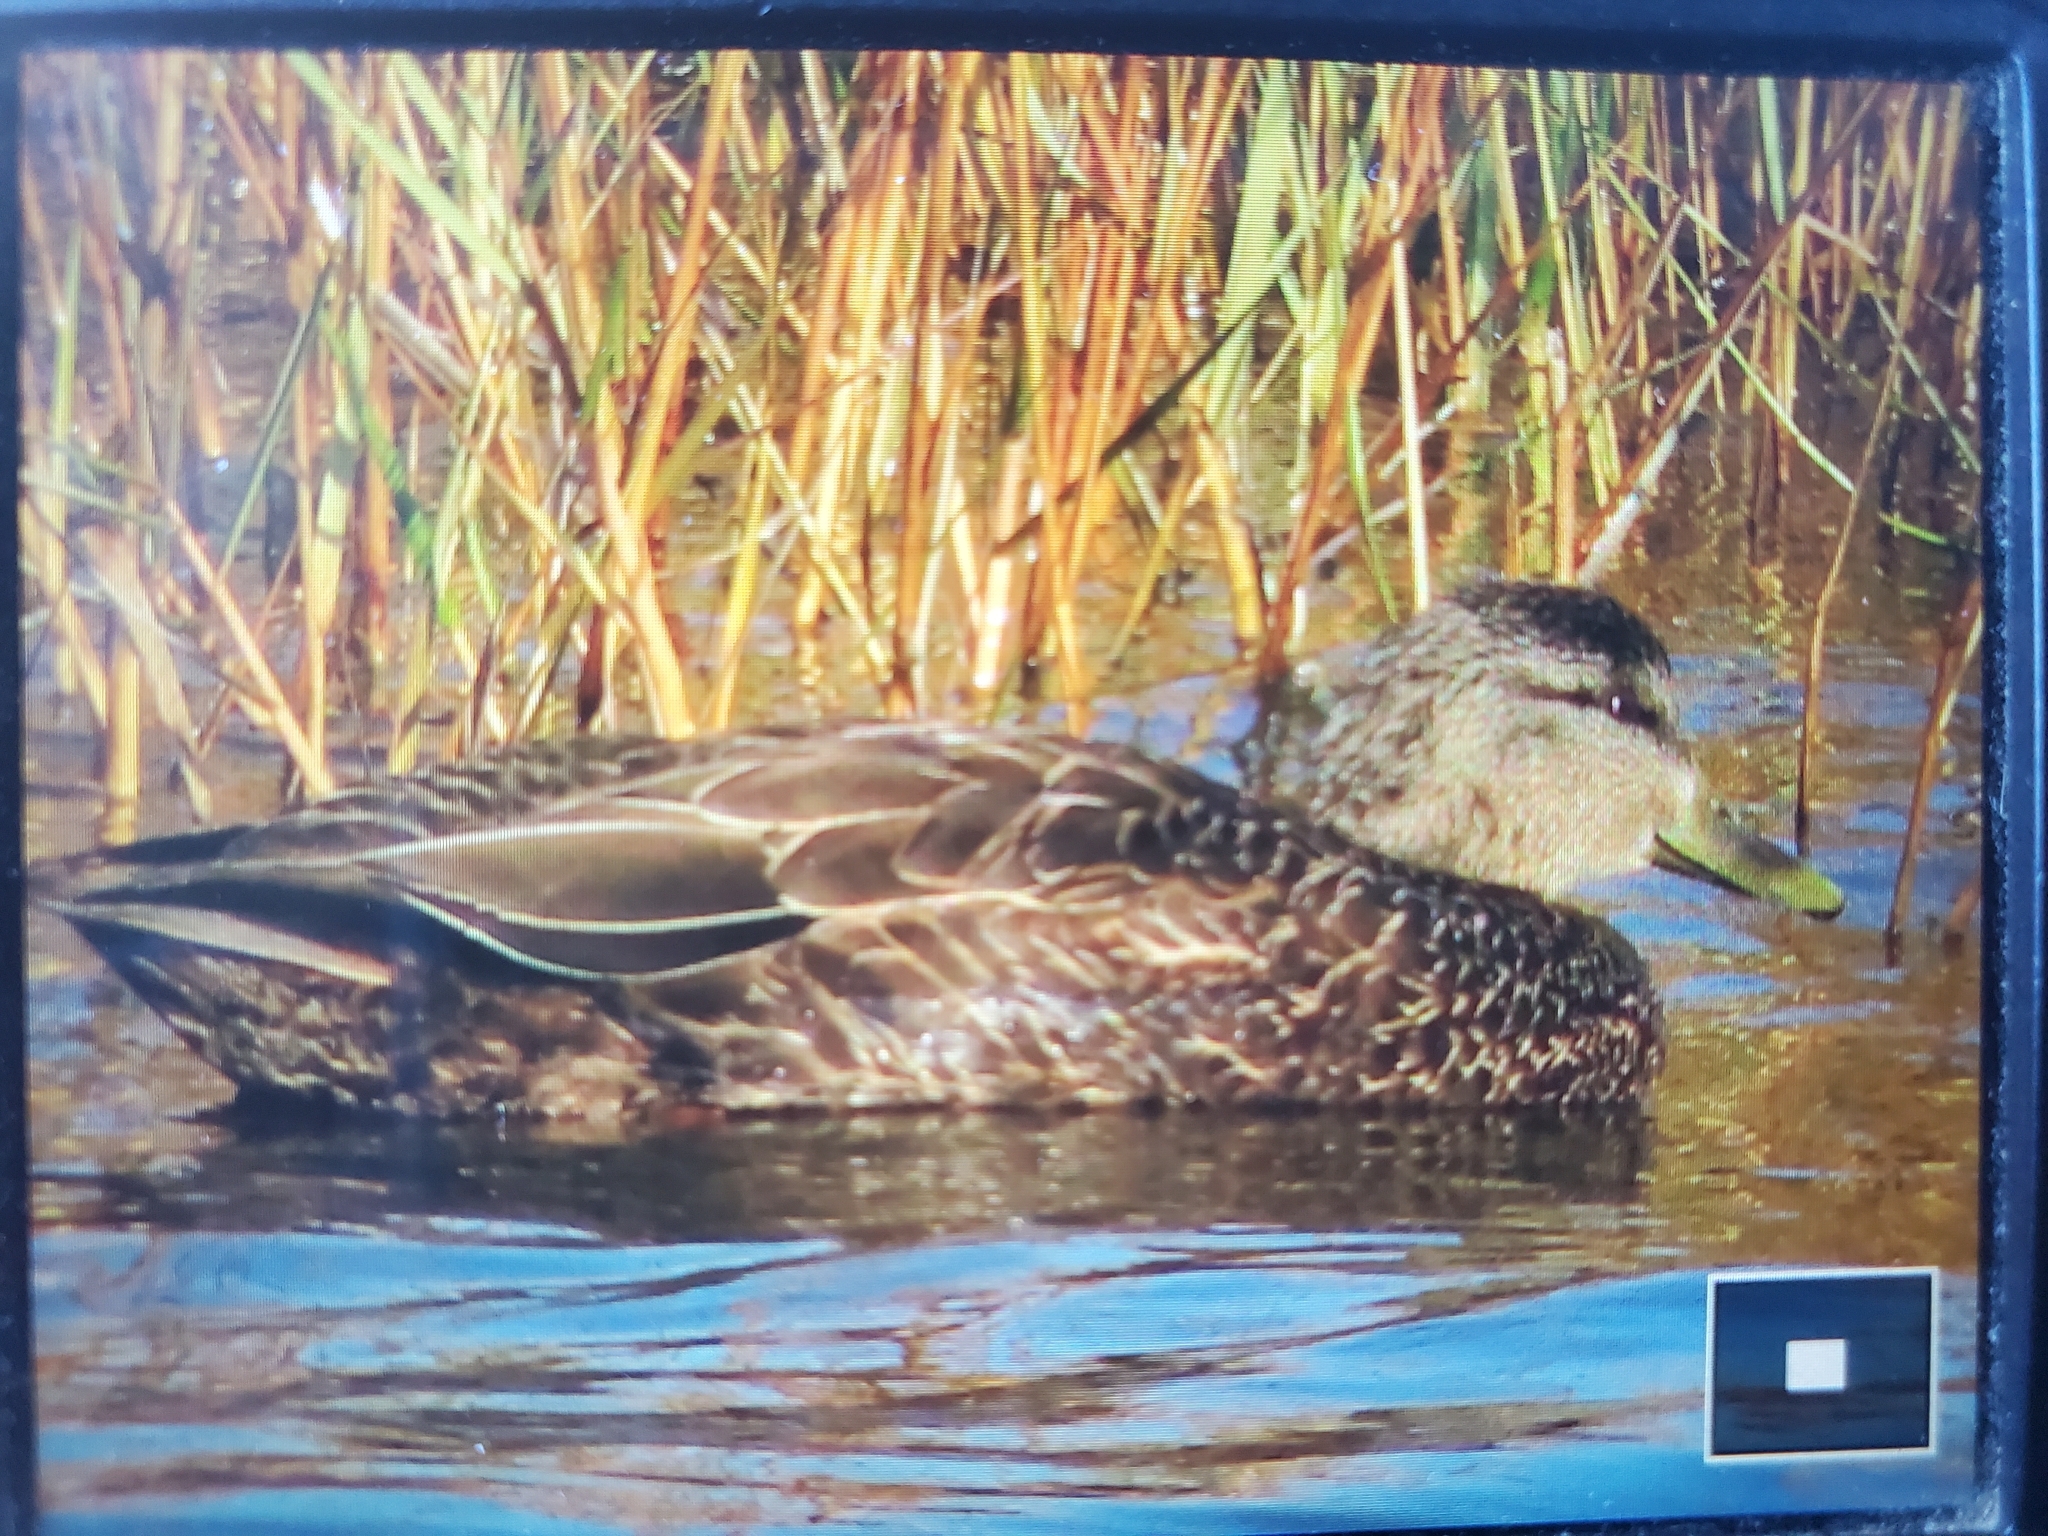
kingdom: Animalia
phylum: Chordata
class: Aves
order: Anseriformes
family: Anatidae
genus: Anas
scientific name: Anas rubripes
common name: American black duck
